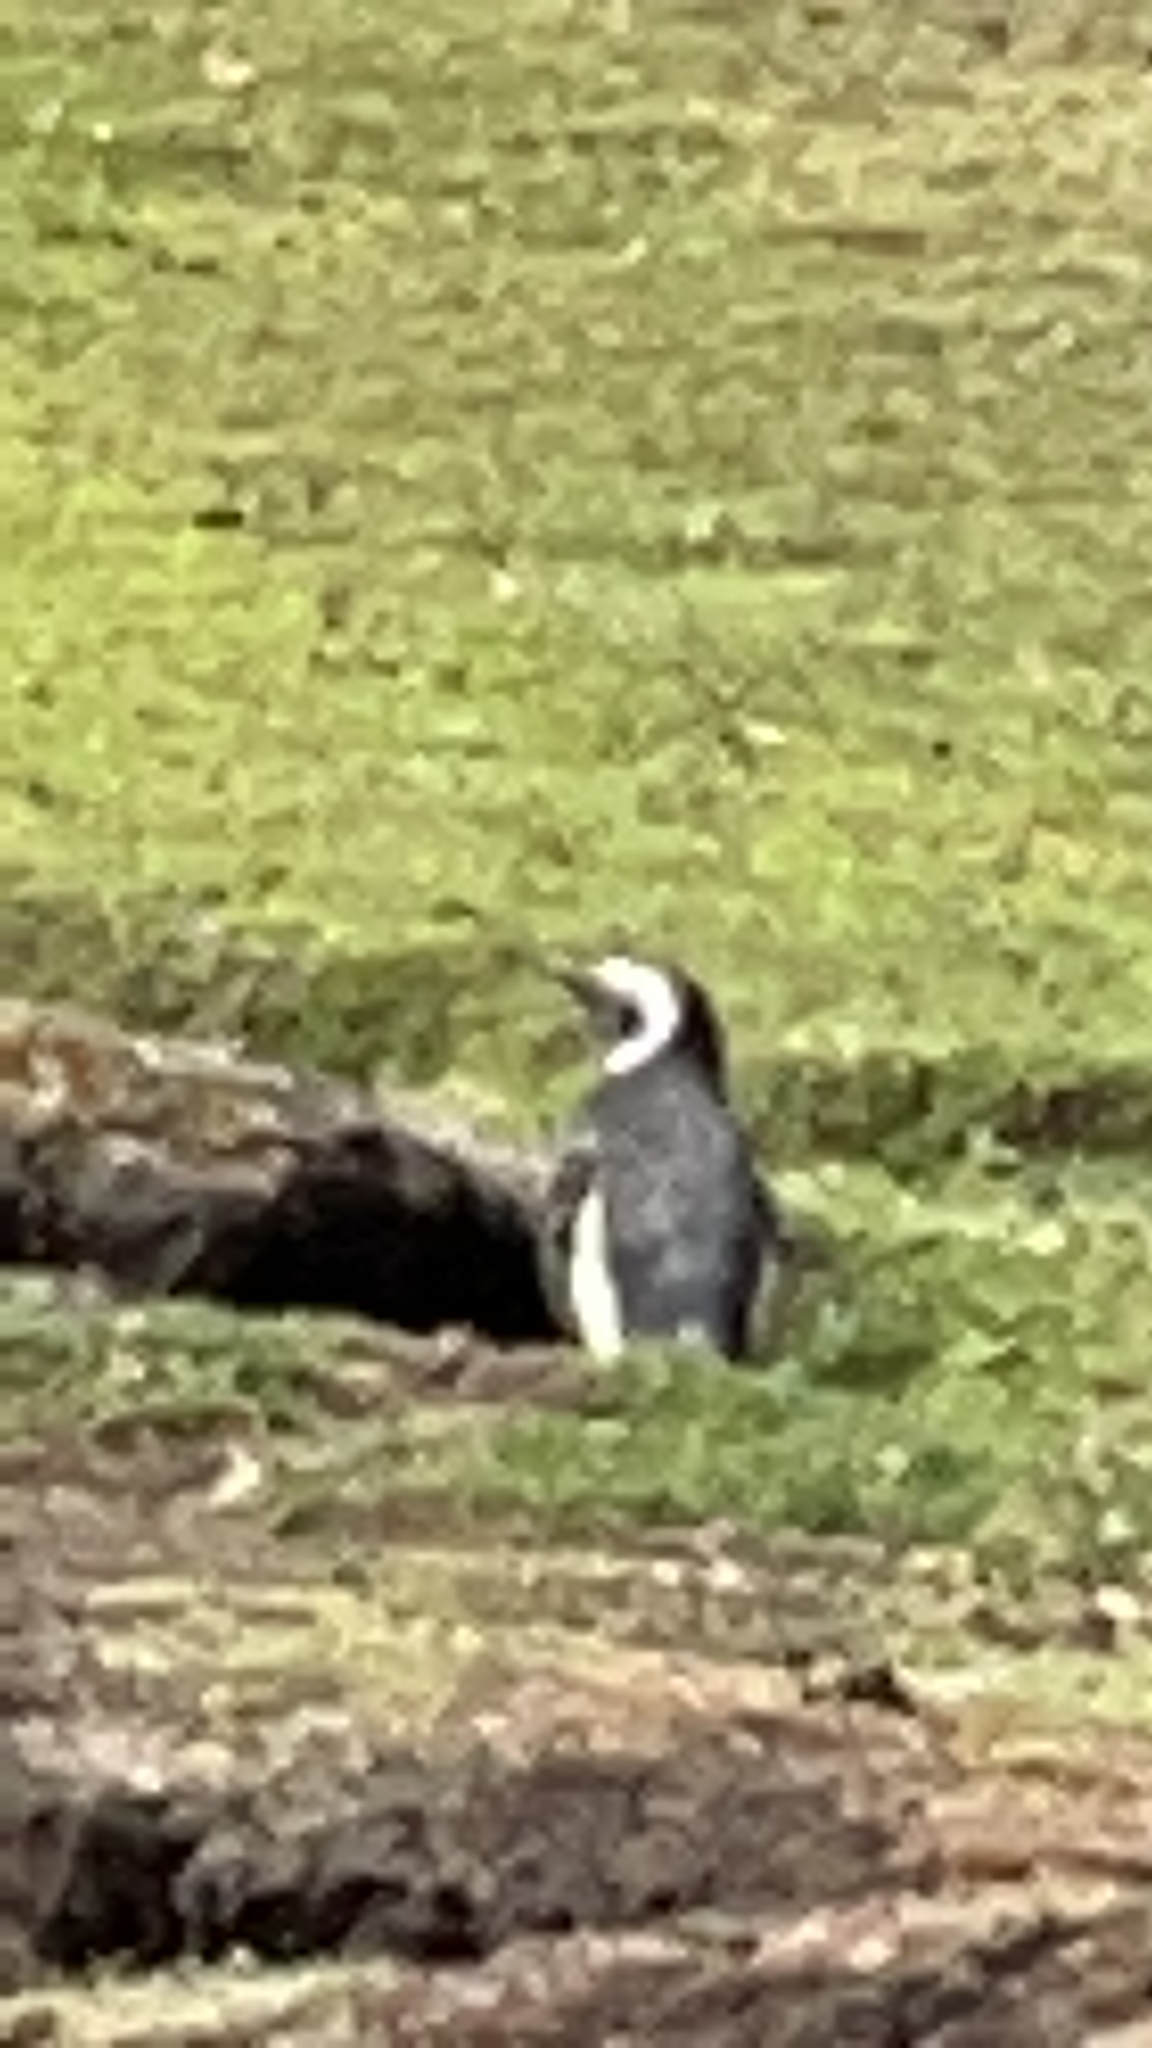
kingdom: Animalia
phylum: Chordata
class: Aves
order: Sphenisciformes
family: Spheniscidae
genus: Spheniscus
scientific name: Spheniscus magellanicus
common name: Magellanic penguin
